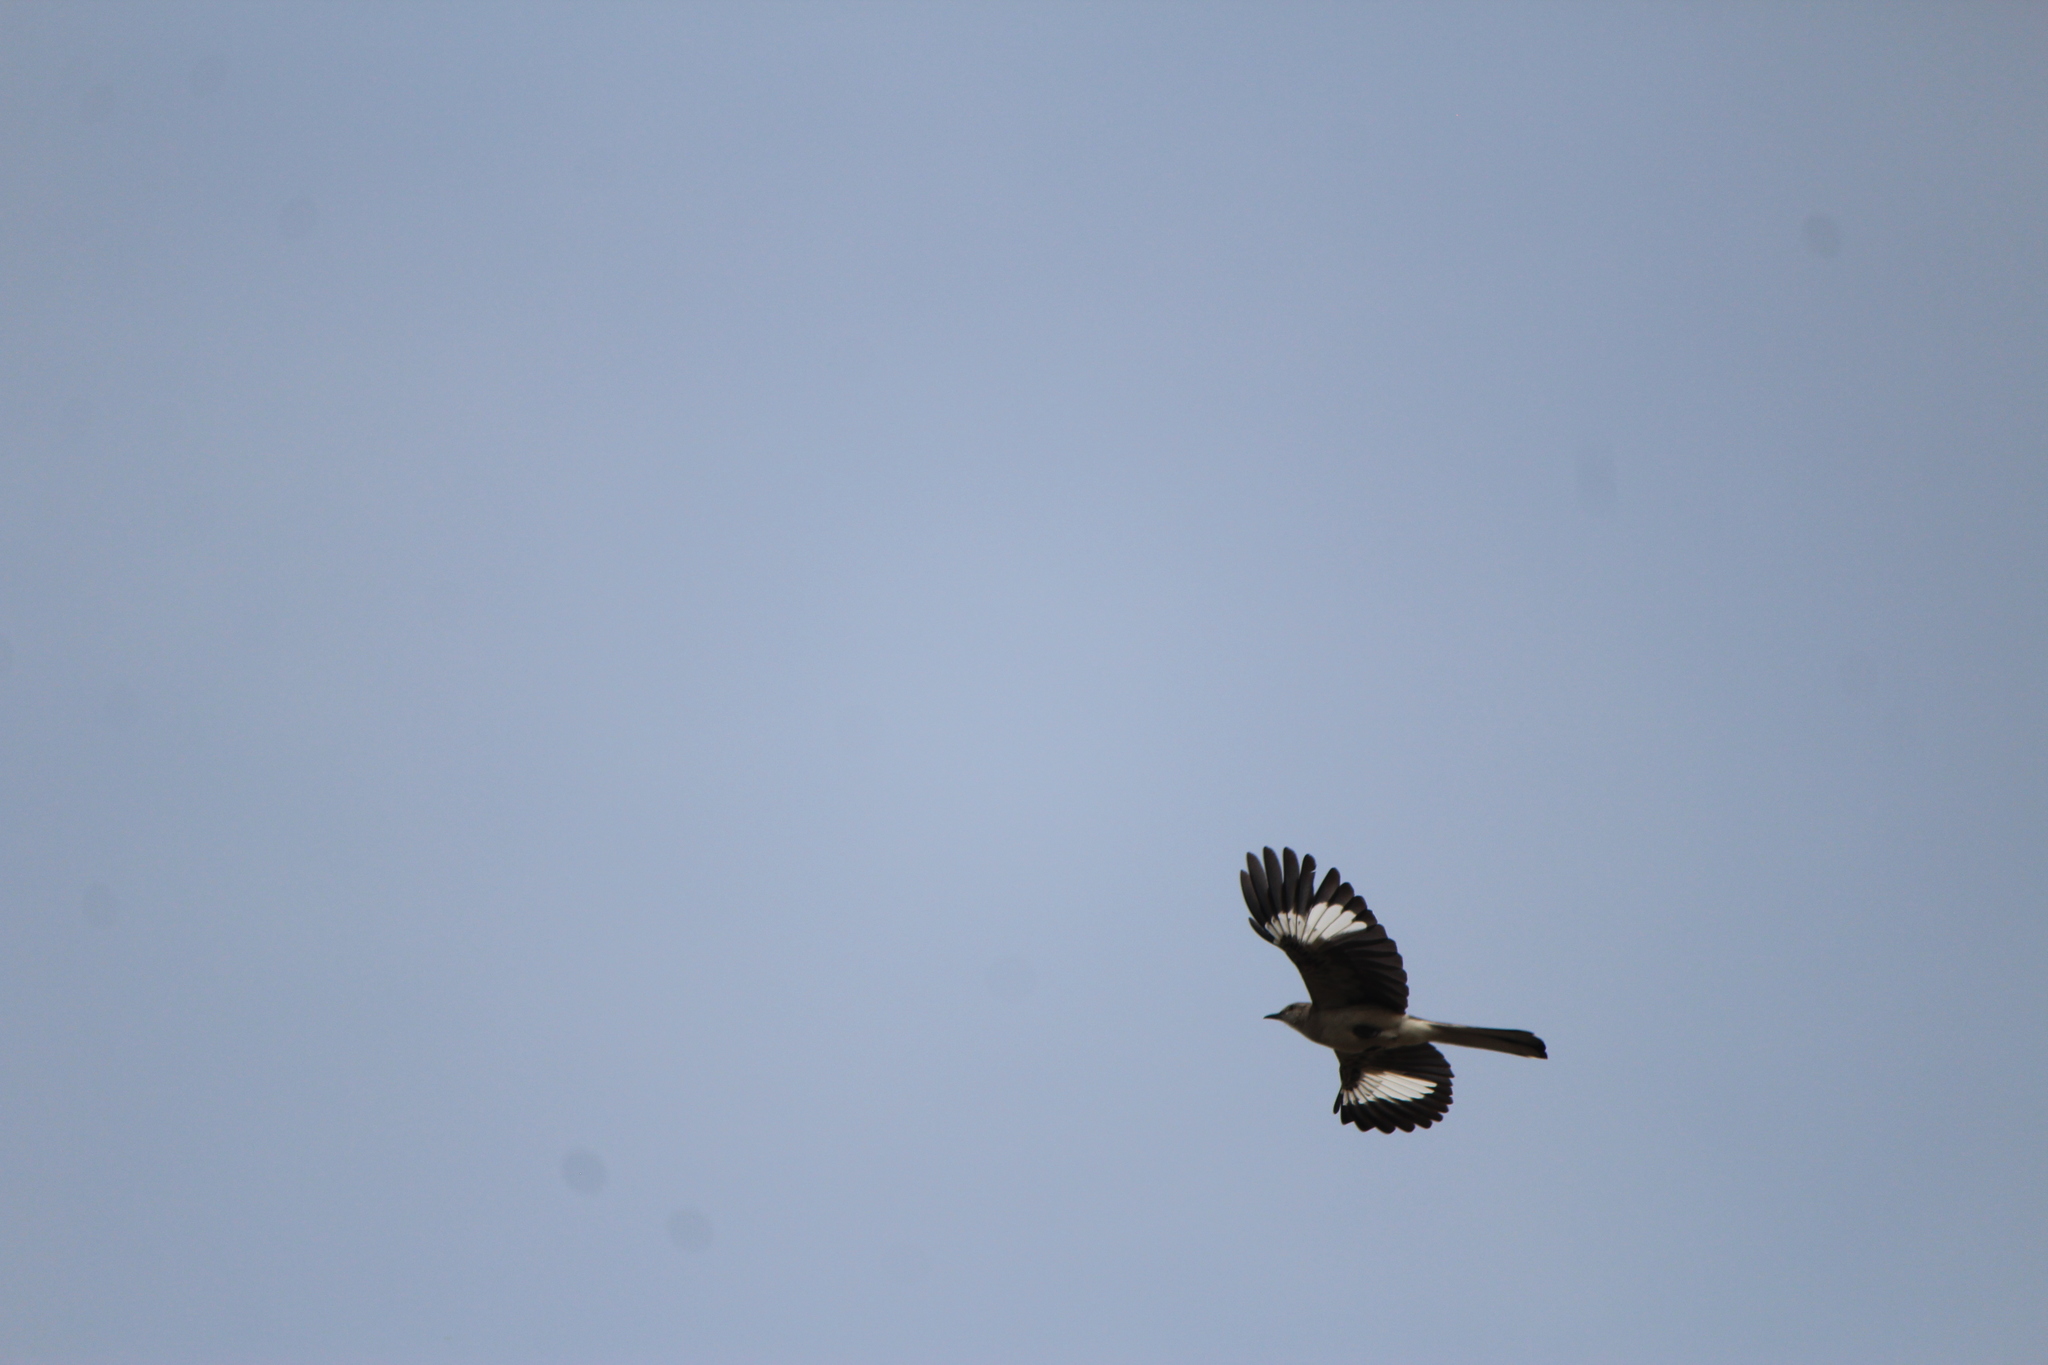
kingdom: Animalia
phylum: Chordata
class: Aves
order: Passeriformes
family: Mimidae
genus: Mimus
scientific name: Mimus polyglottos
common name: Northern mockingbird
